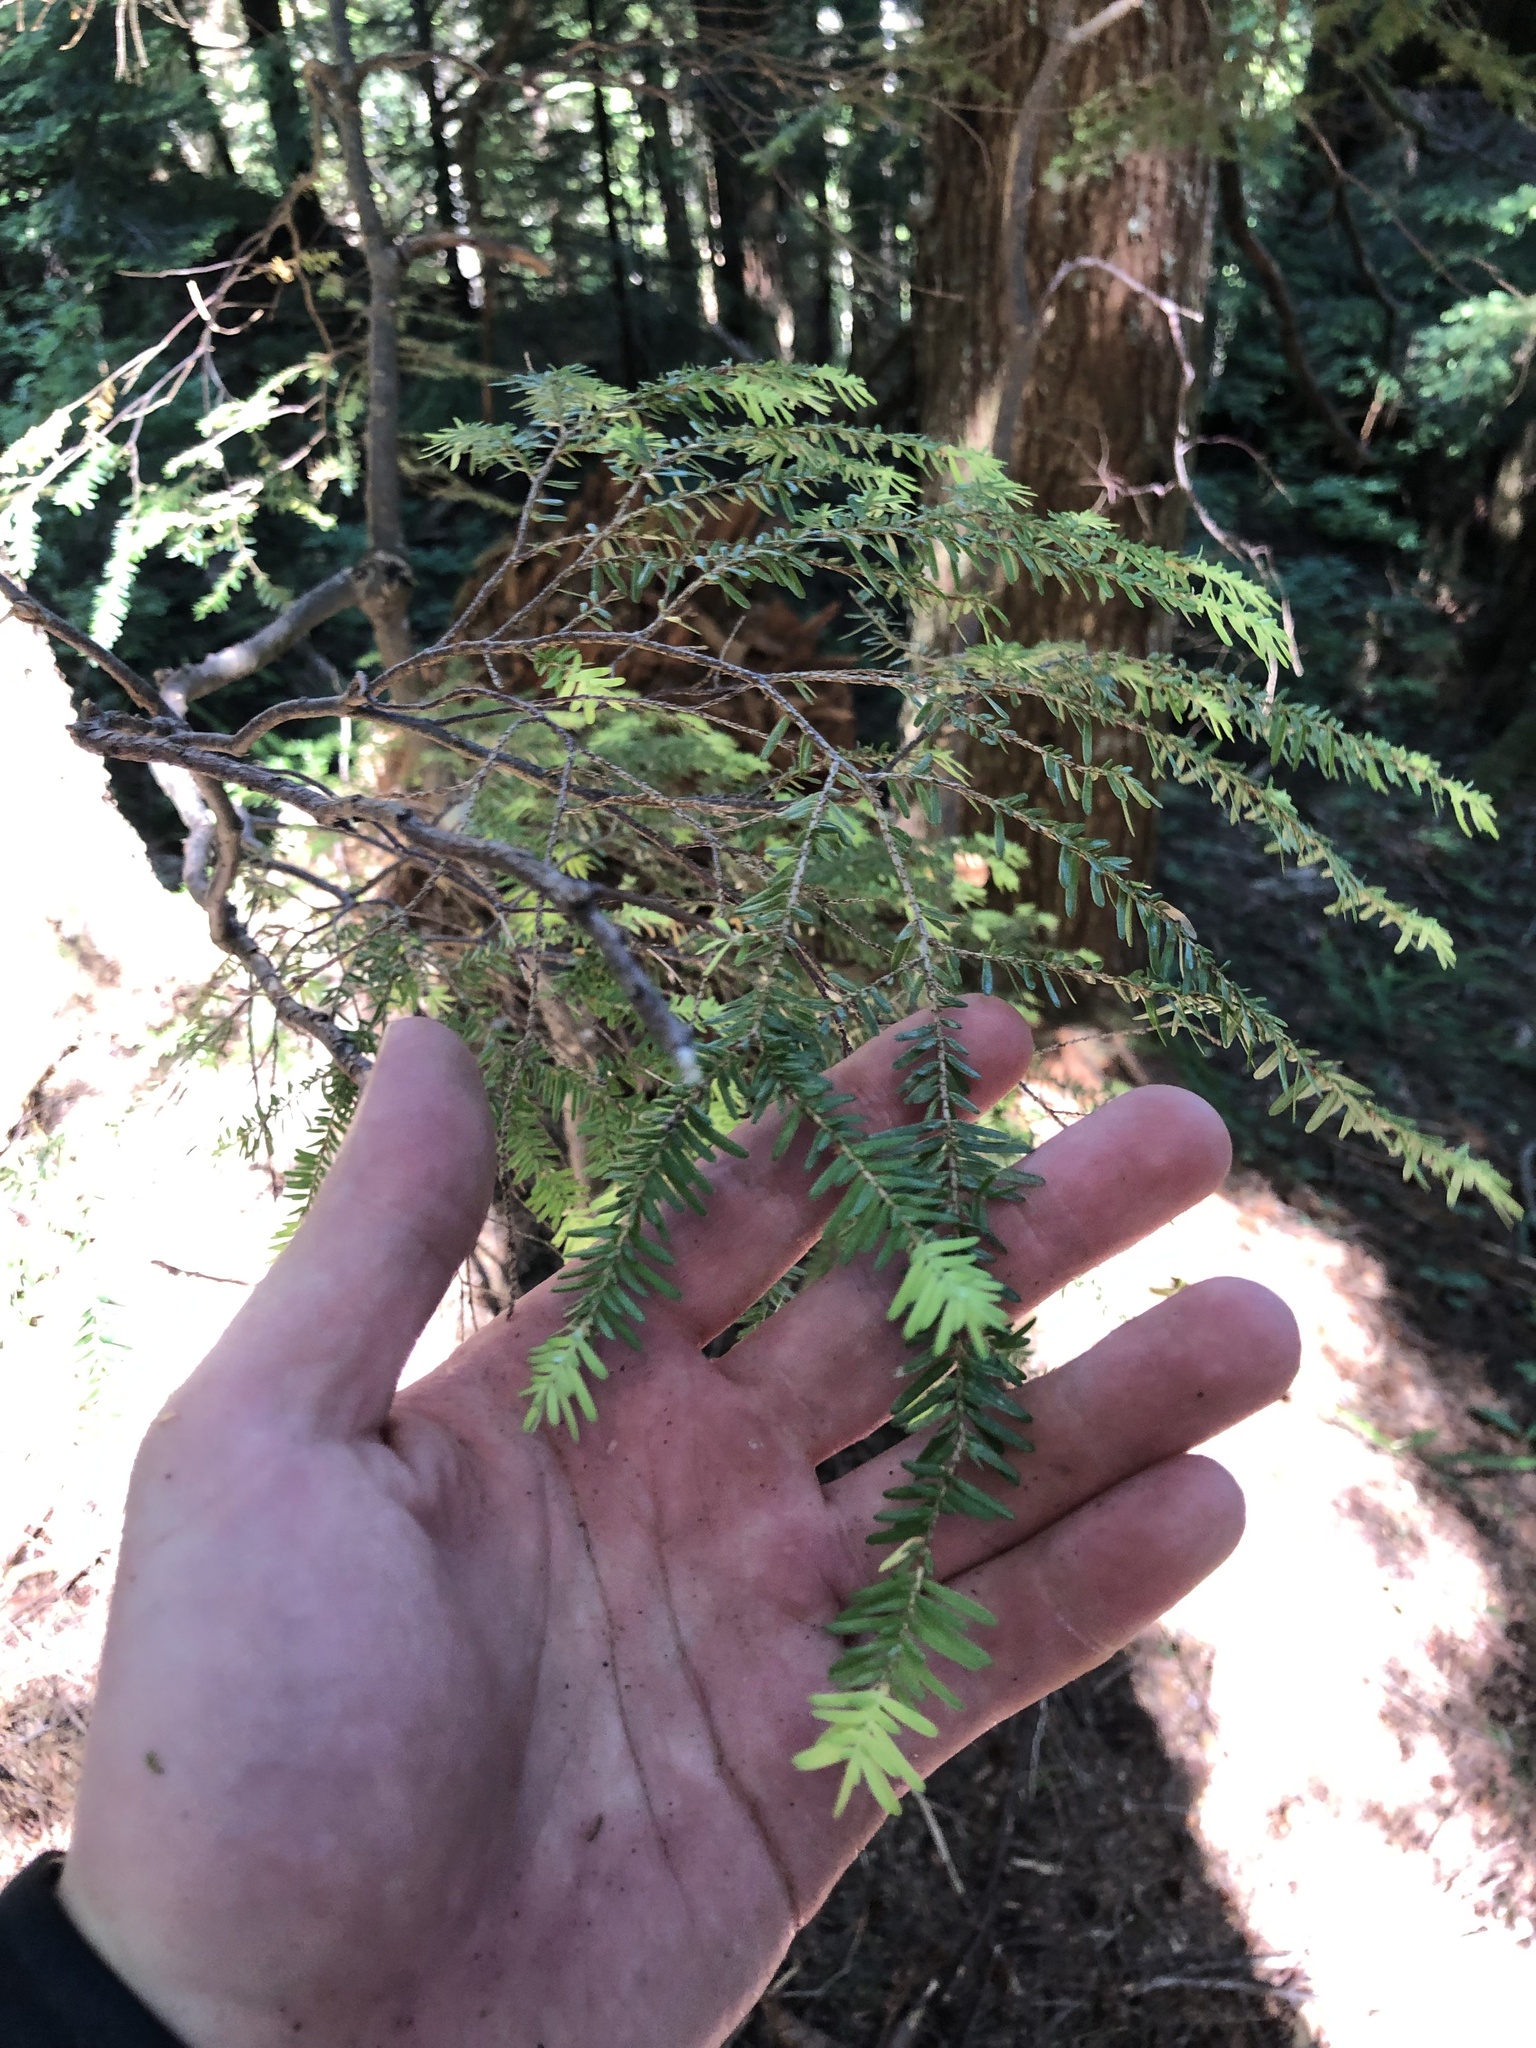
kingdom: Plantae
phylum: Tracheophyta
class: Pinopsida
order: Pinales
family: Pinaceae
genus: Tsuga
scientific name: Tsuga heterophylla
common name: Western hemlock
